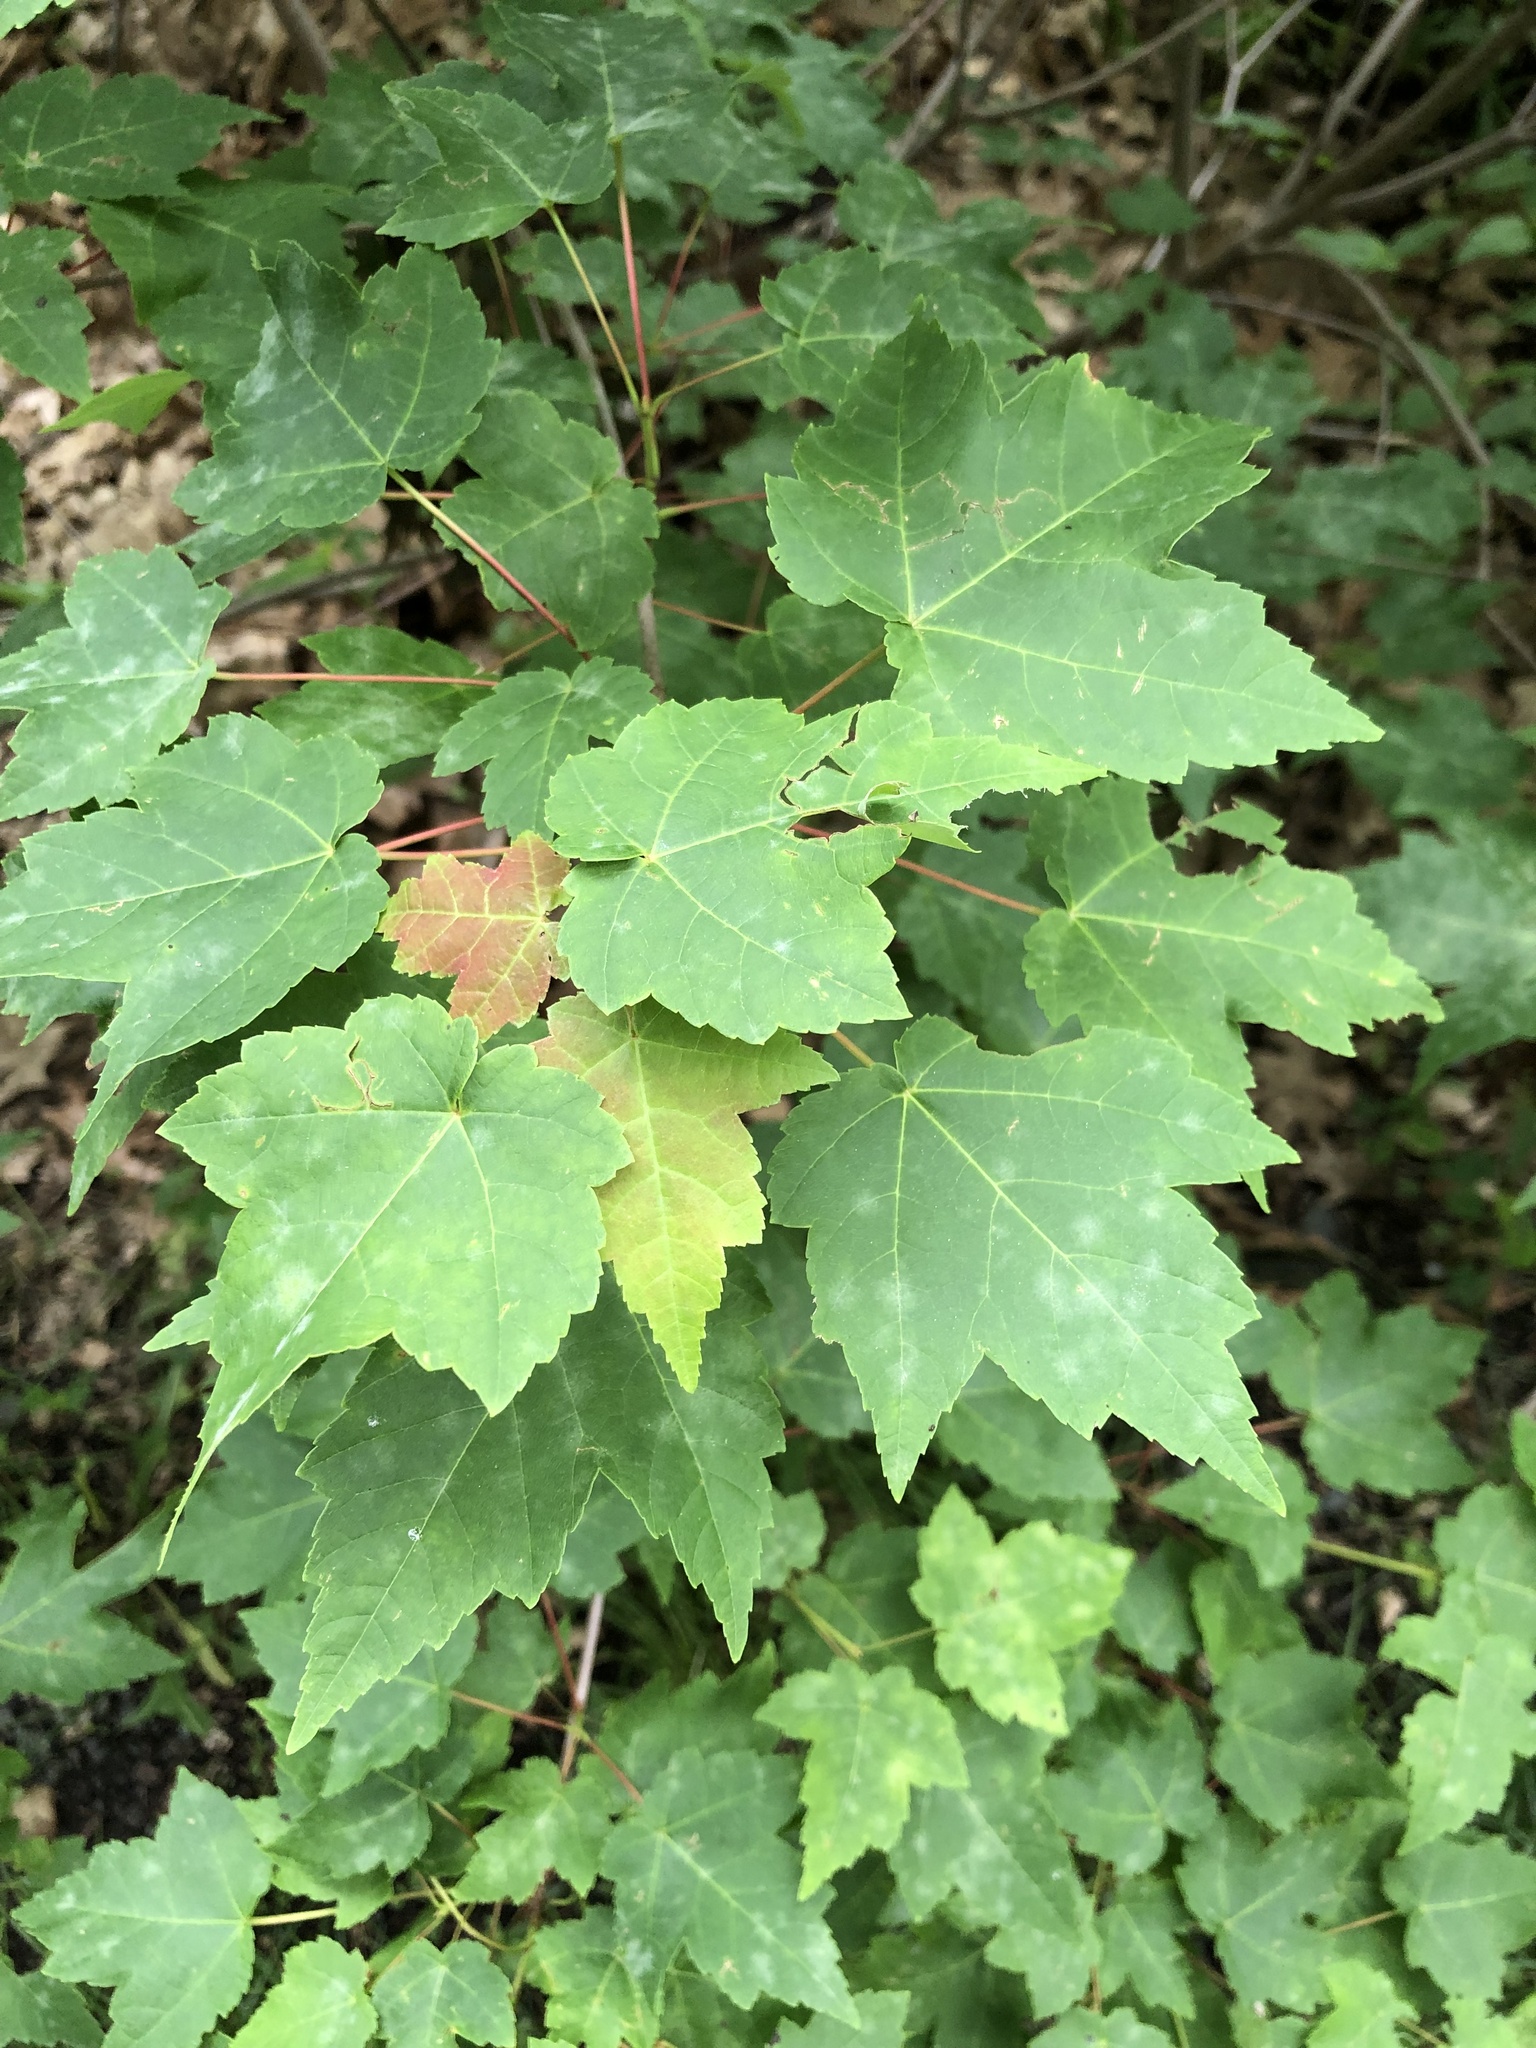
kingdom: Plantae
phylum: Tracheophyta
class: Magnoliopsida
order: Sapindales
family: Sapindaceae
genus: Acer
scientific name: Acer rubrum
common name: Red maple
